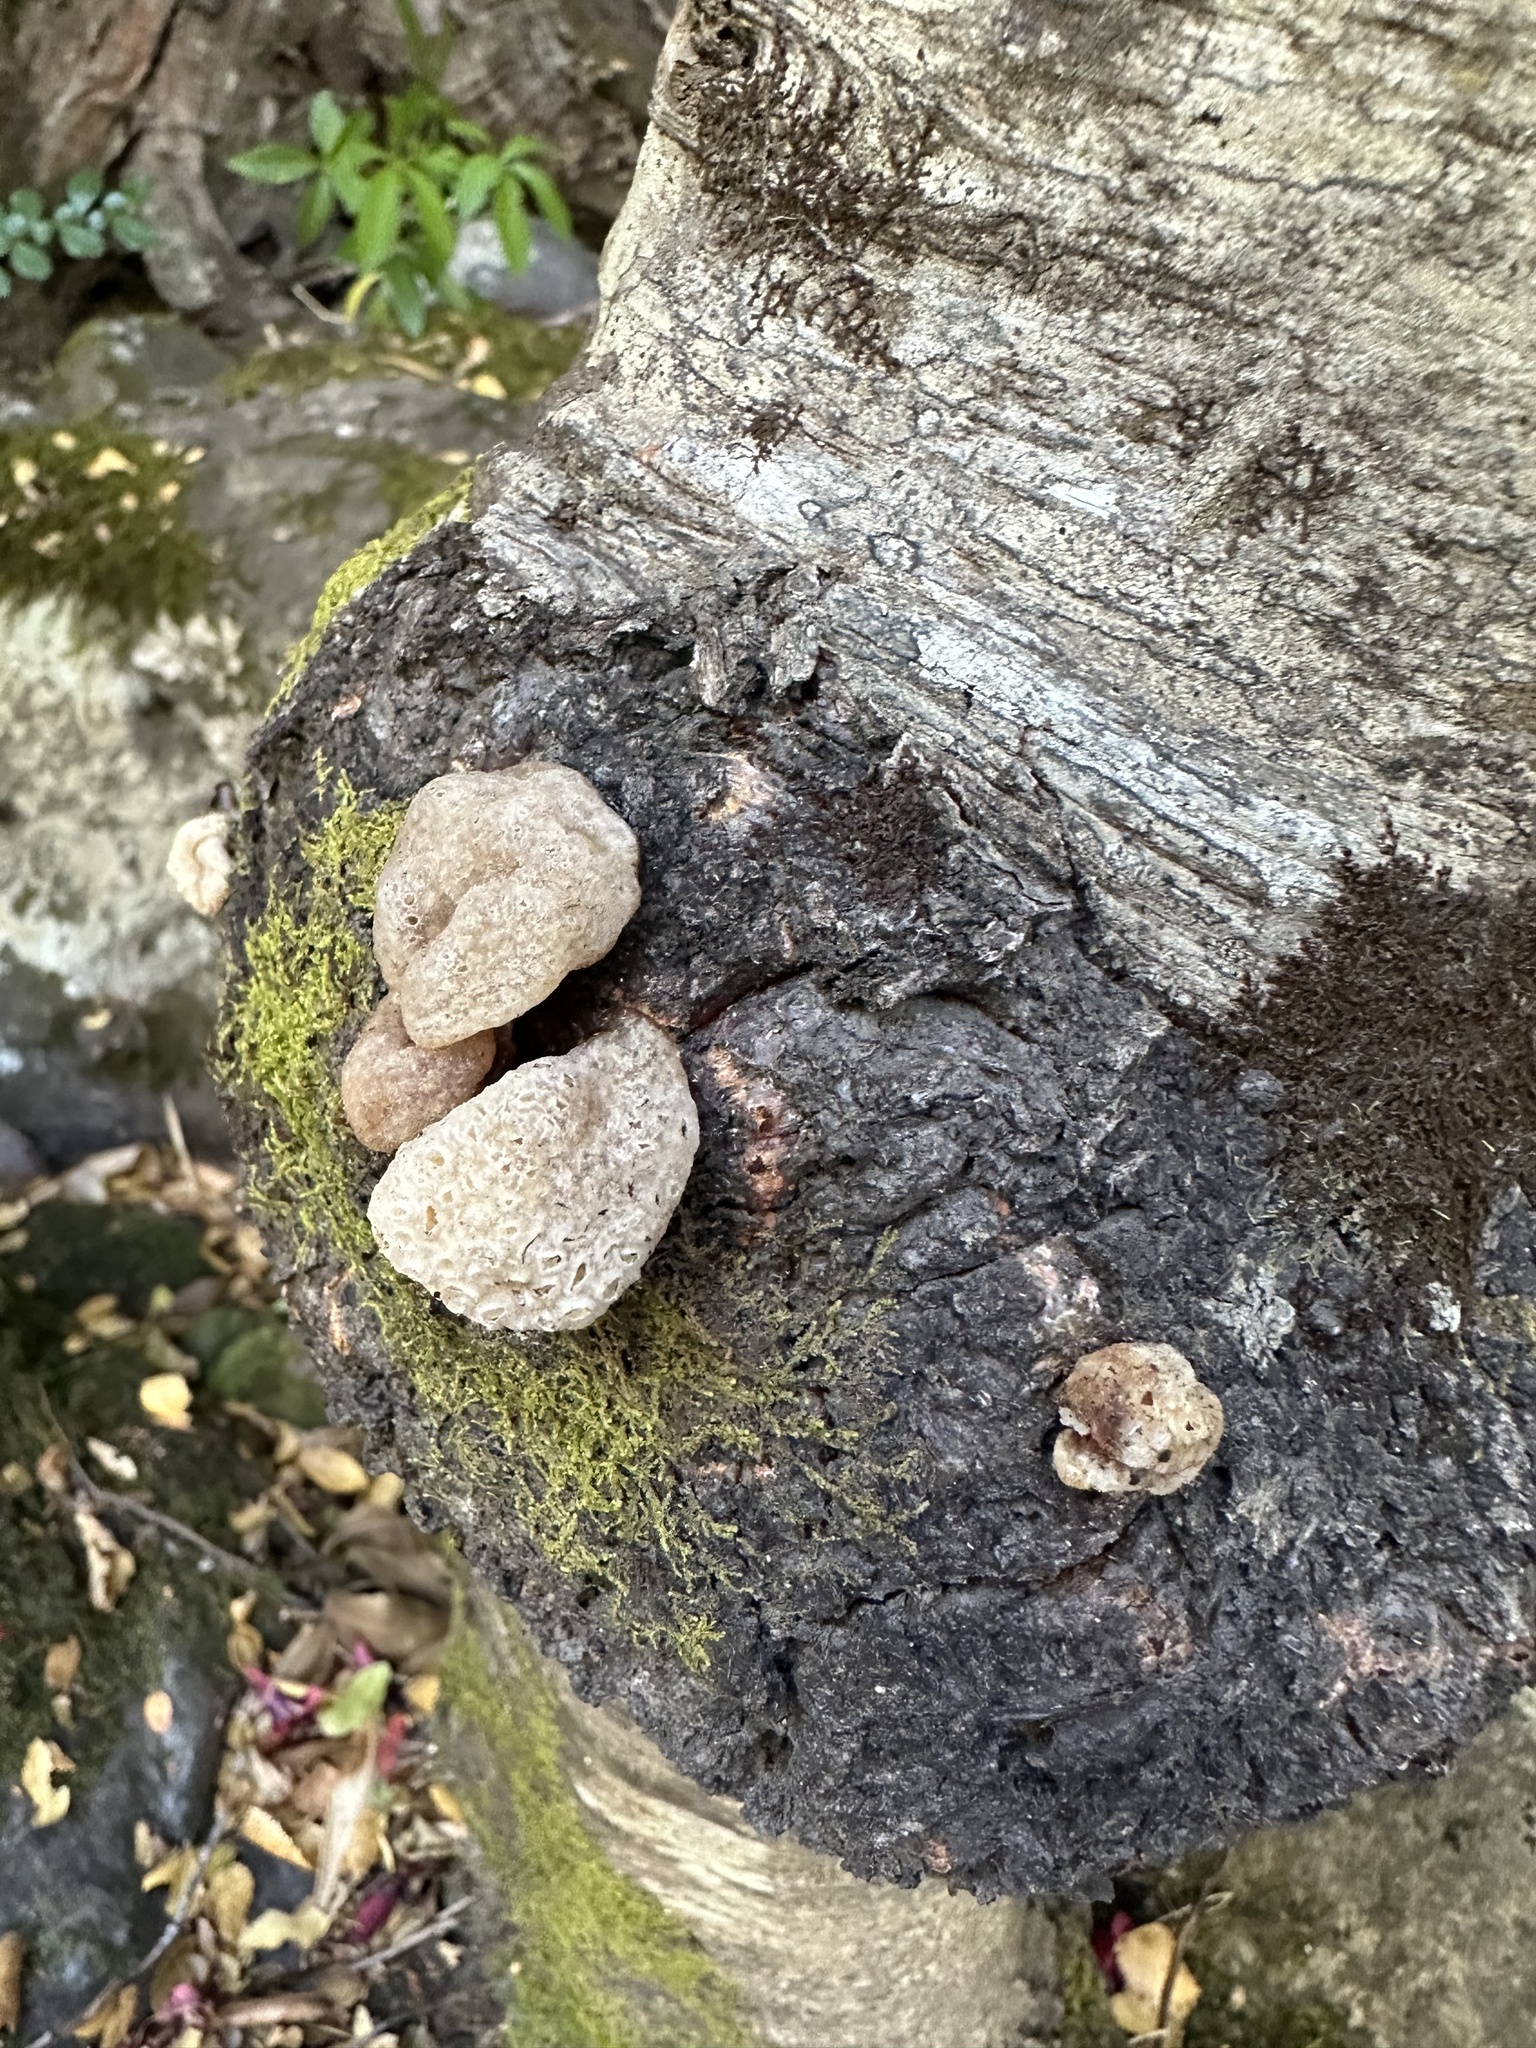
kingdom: Fungi
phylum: Ascomycota
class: Leotiomycetes
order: Cyttariales
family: Cyttariaceae
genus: Cyttaria
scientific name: Cyttaria hariotii
